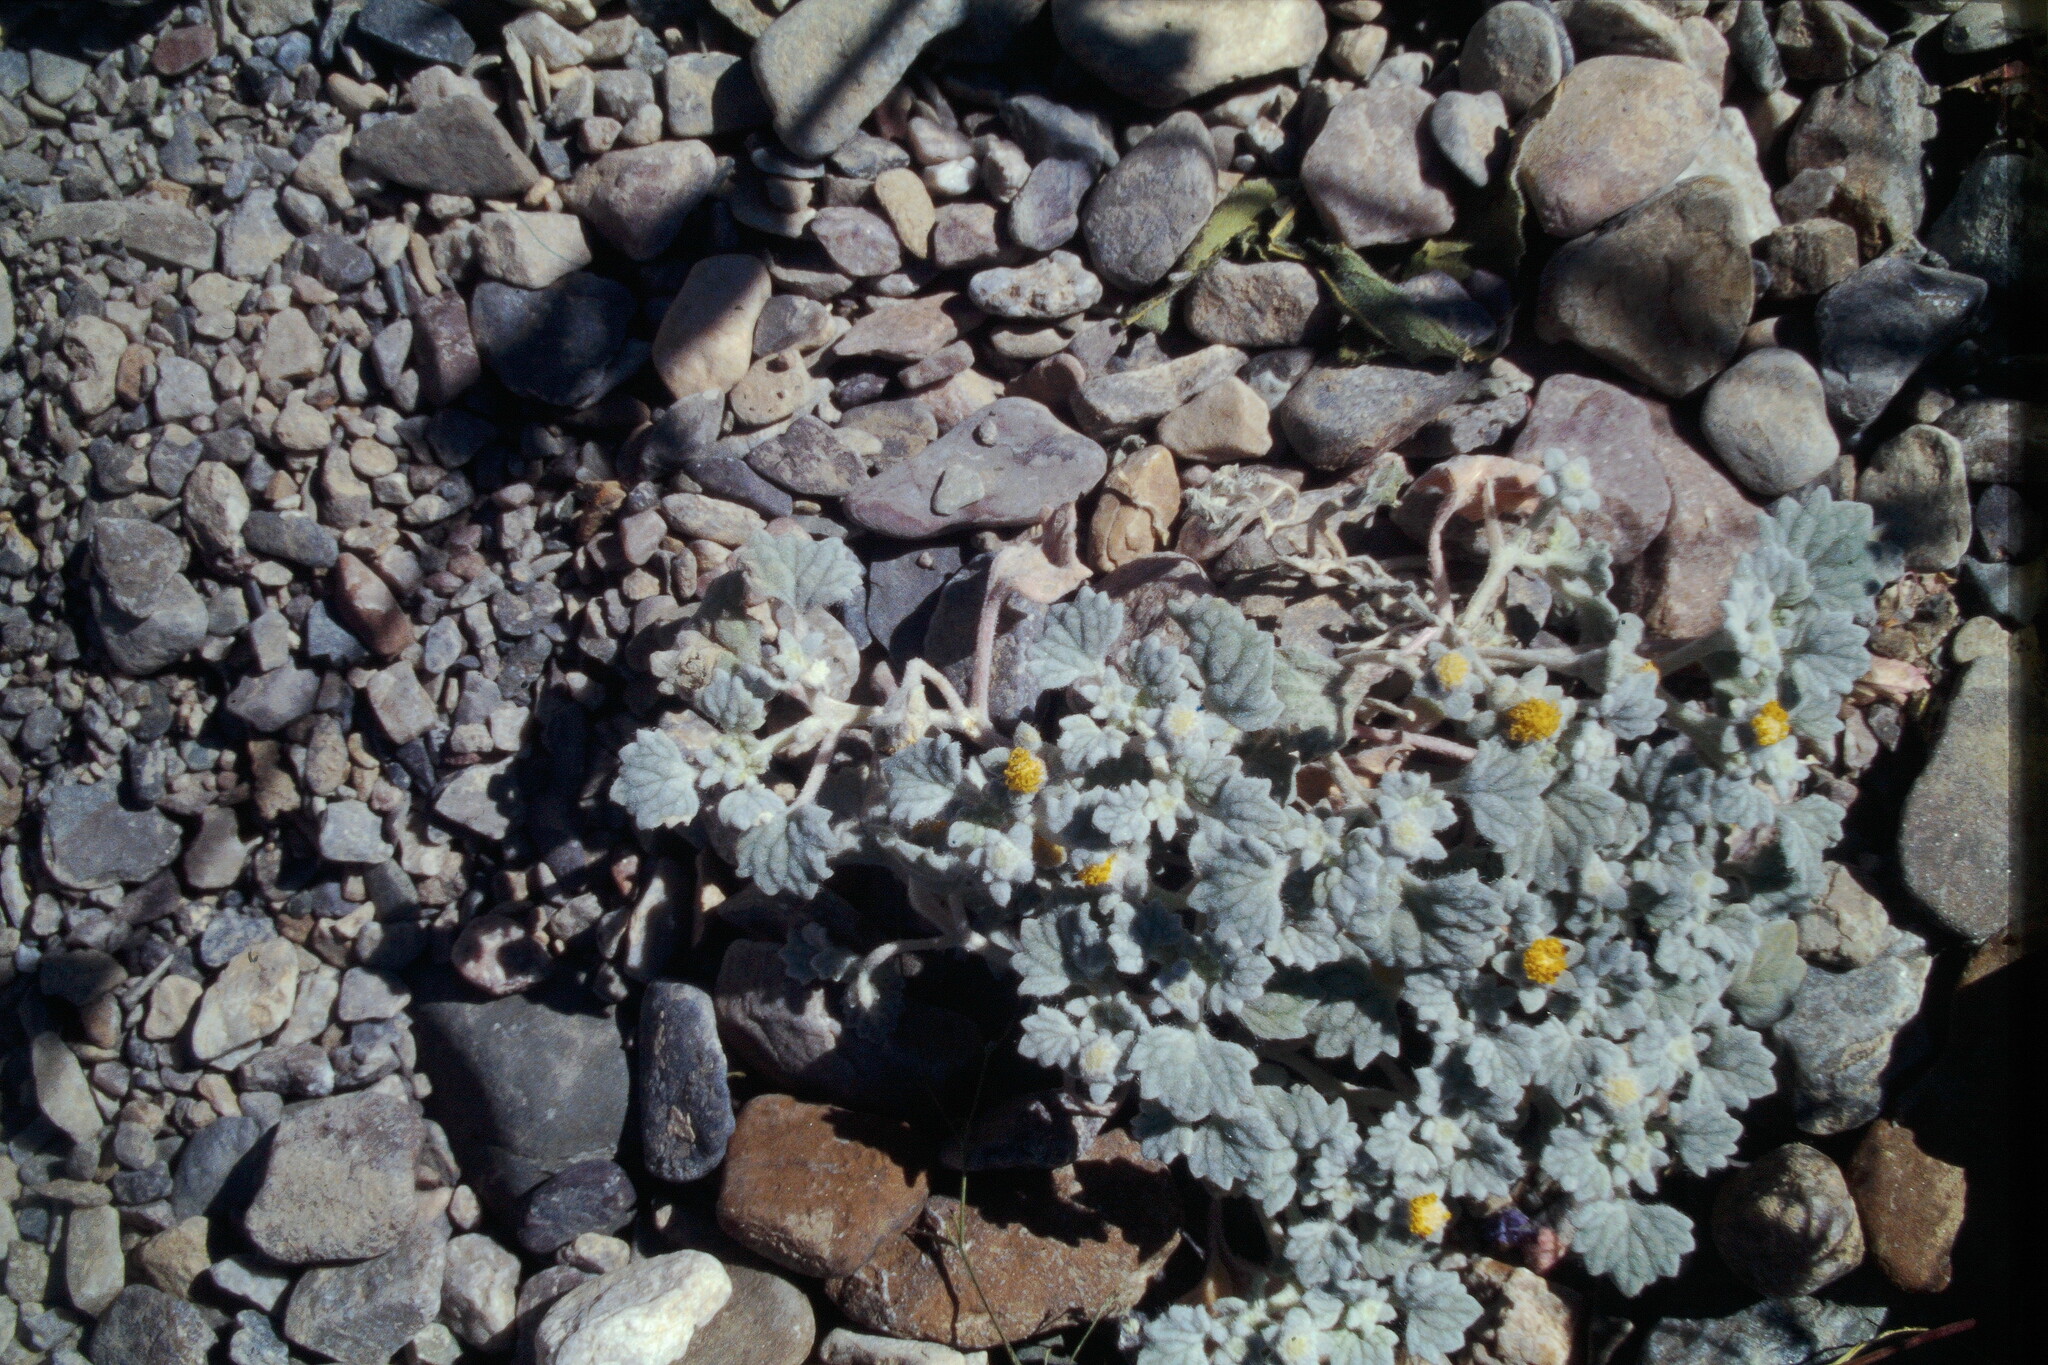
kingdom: Plantae
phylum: Tracheophyta
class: Magnoliopsida
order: Asterales
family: Asteraceae
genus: Psathyrotes
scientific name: Psathyrotes ramosissima
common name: Turtleback
